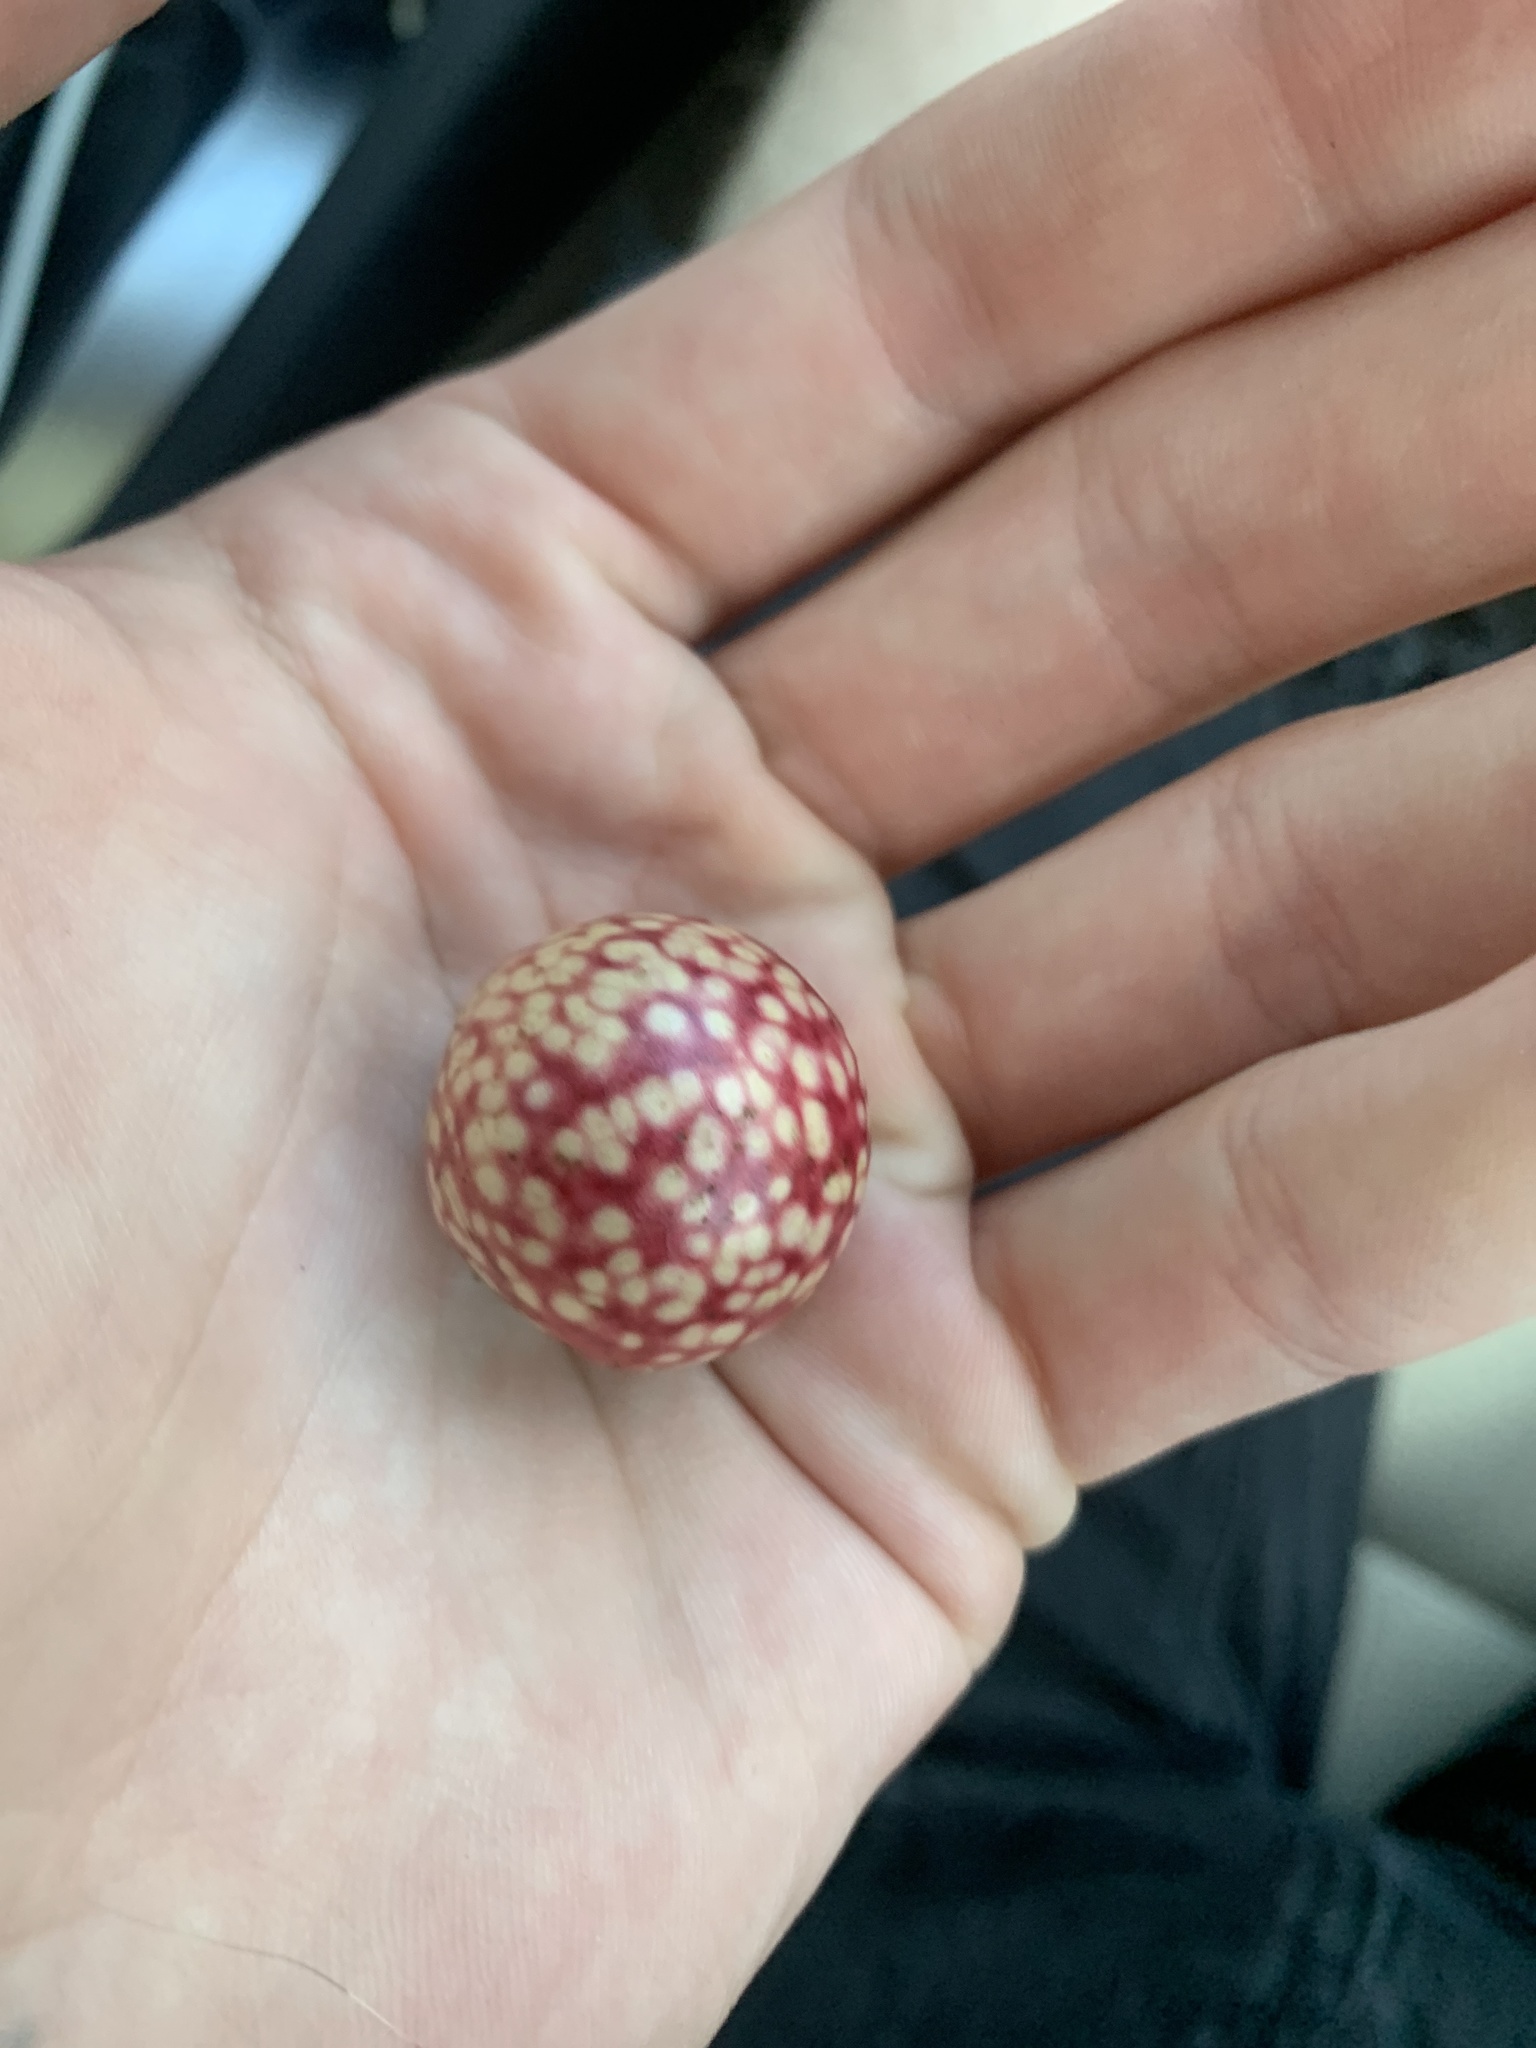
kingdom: Animalia
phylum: Arthropoda
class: Insecta
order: Hymenoptera
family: Cynipidae
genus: Amphibolips
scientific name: Amphibolips
